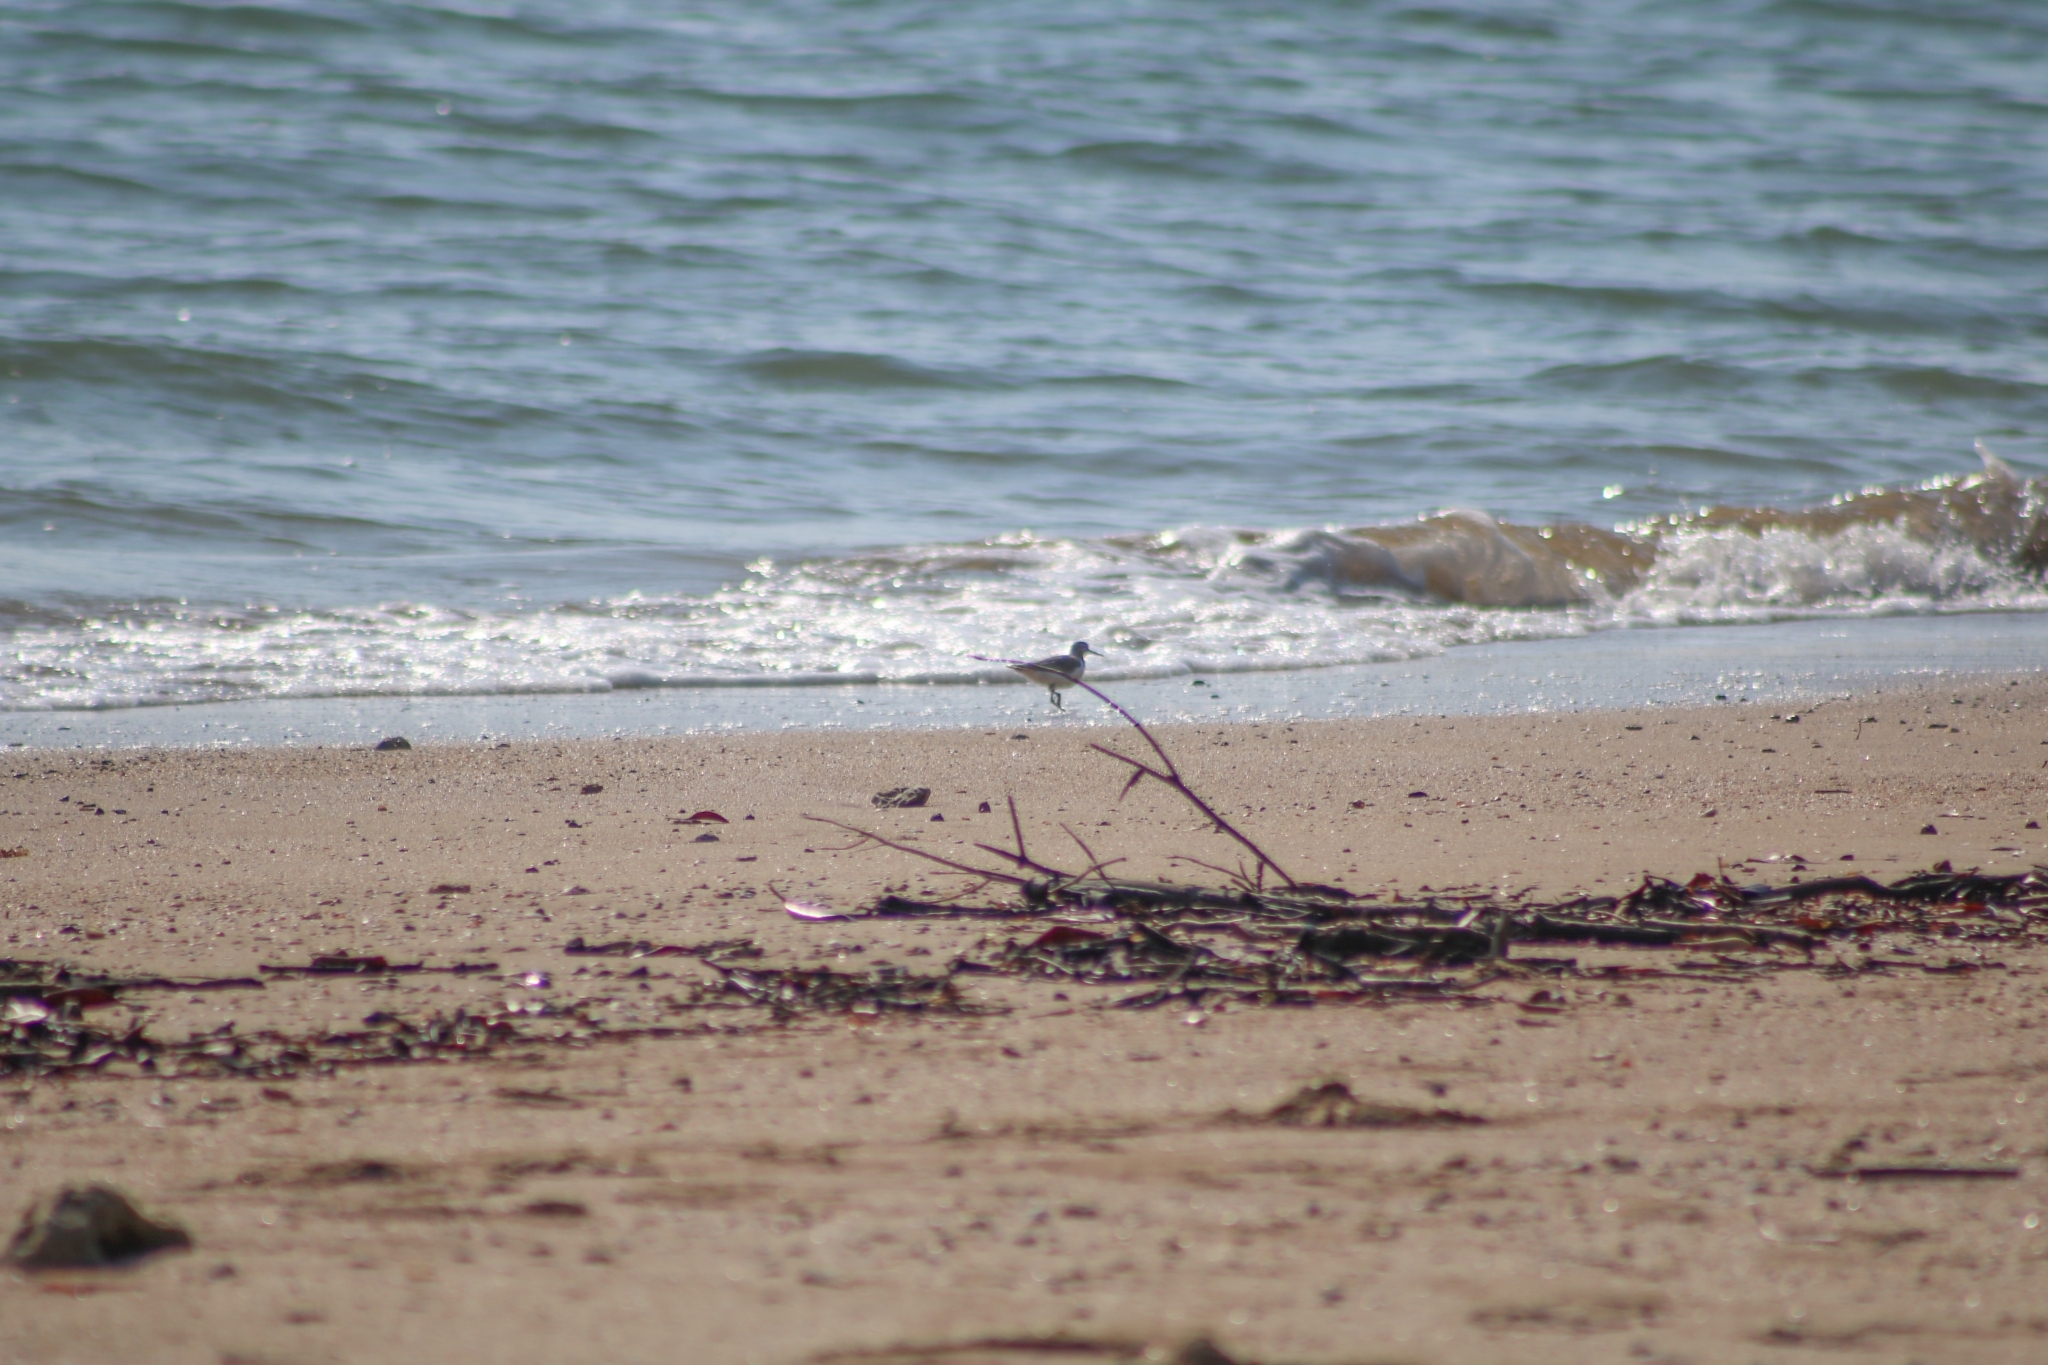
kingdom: Animalia
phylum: Chordata
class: Aves
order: Charadriiformes
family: Scolopacidae
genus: Actitis
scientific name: Actitis hypoleucos
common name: Common sandpiper
